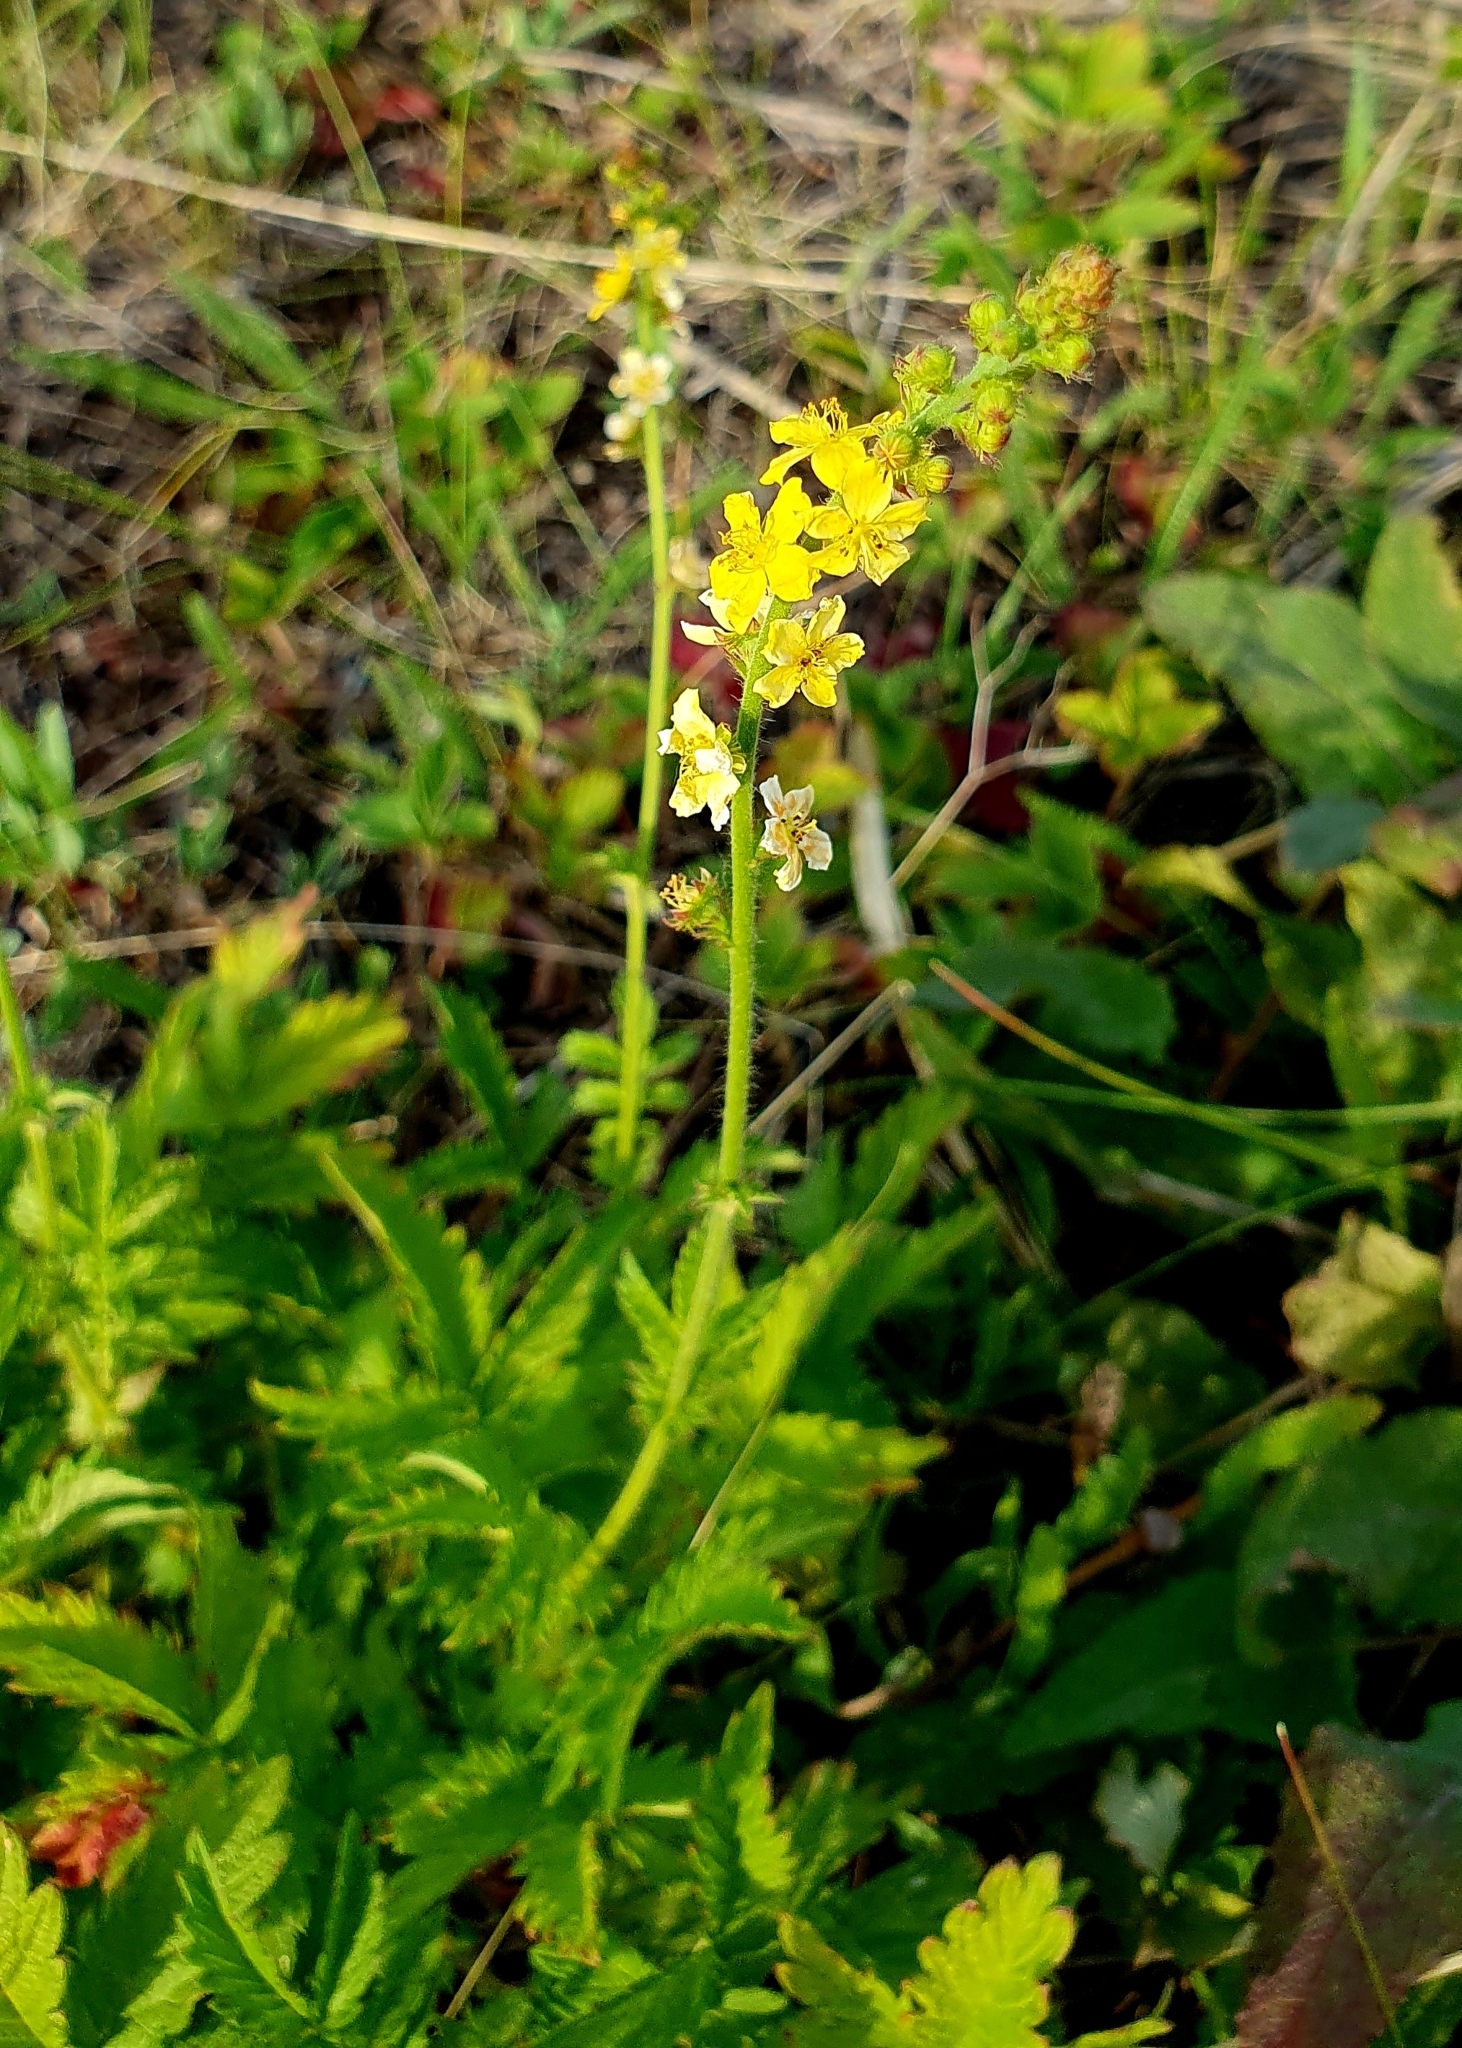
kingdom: Plantae
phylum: Tracheophyta
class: Magnoliopsida
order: Rosales
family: Rosaceae
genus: Agrimonia
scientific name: Agrimonia eupatoria
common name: Agrimony
